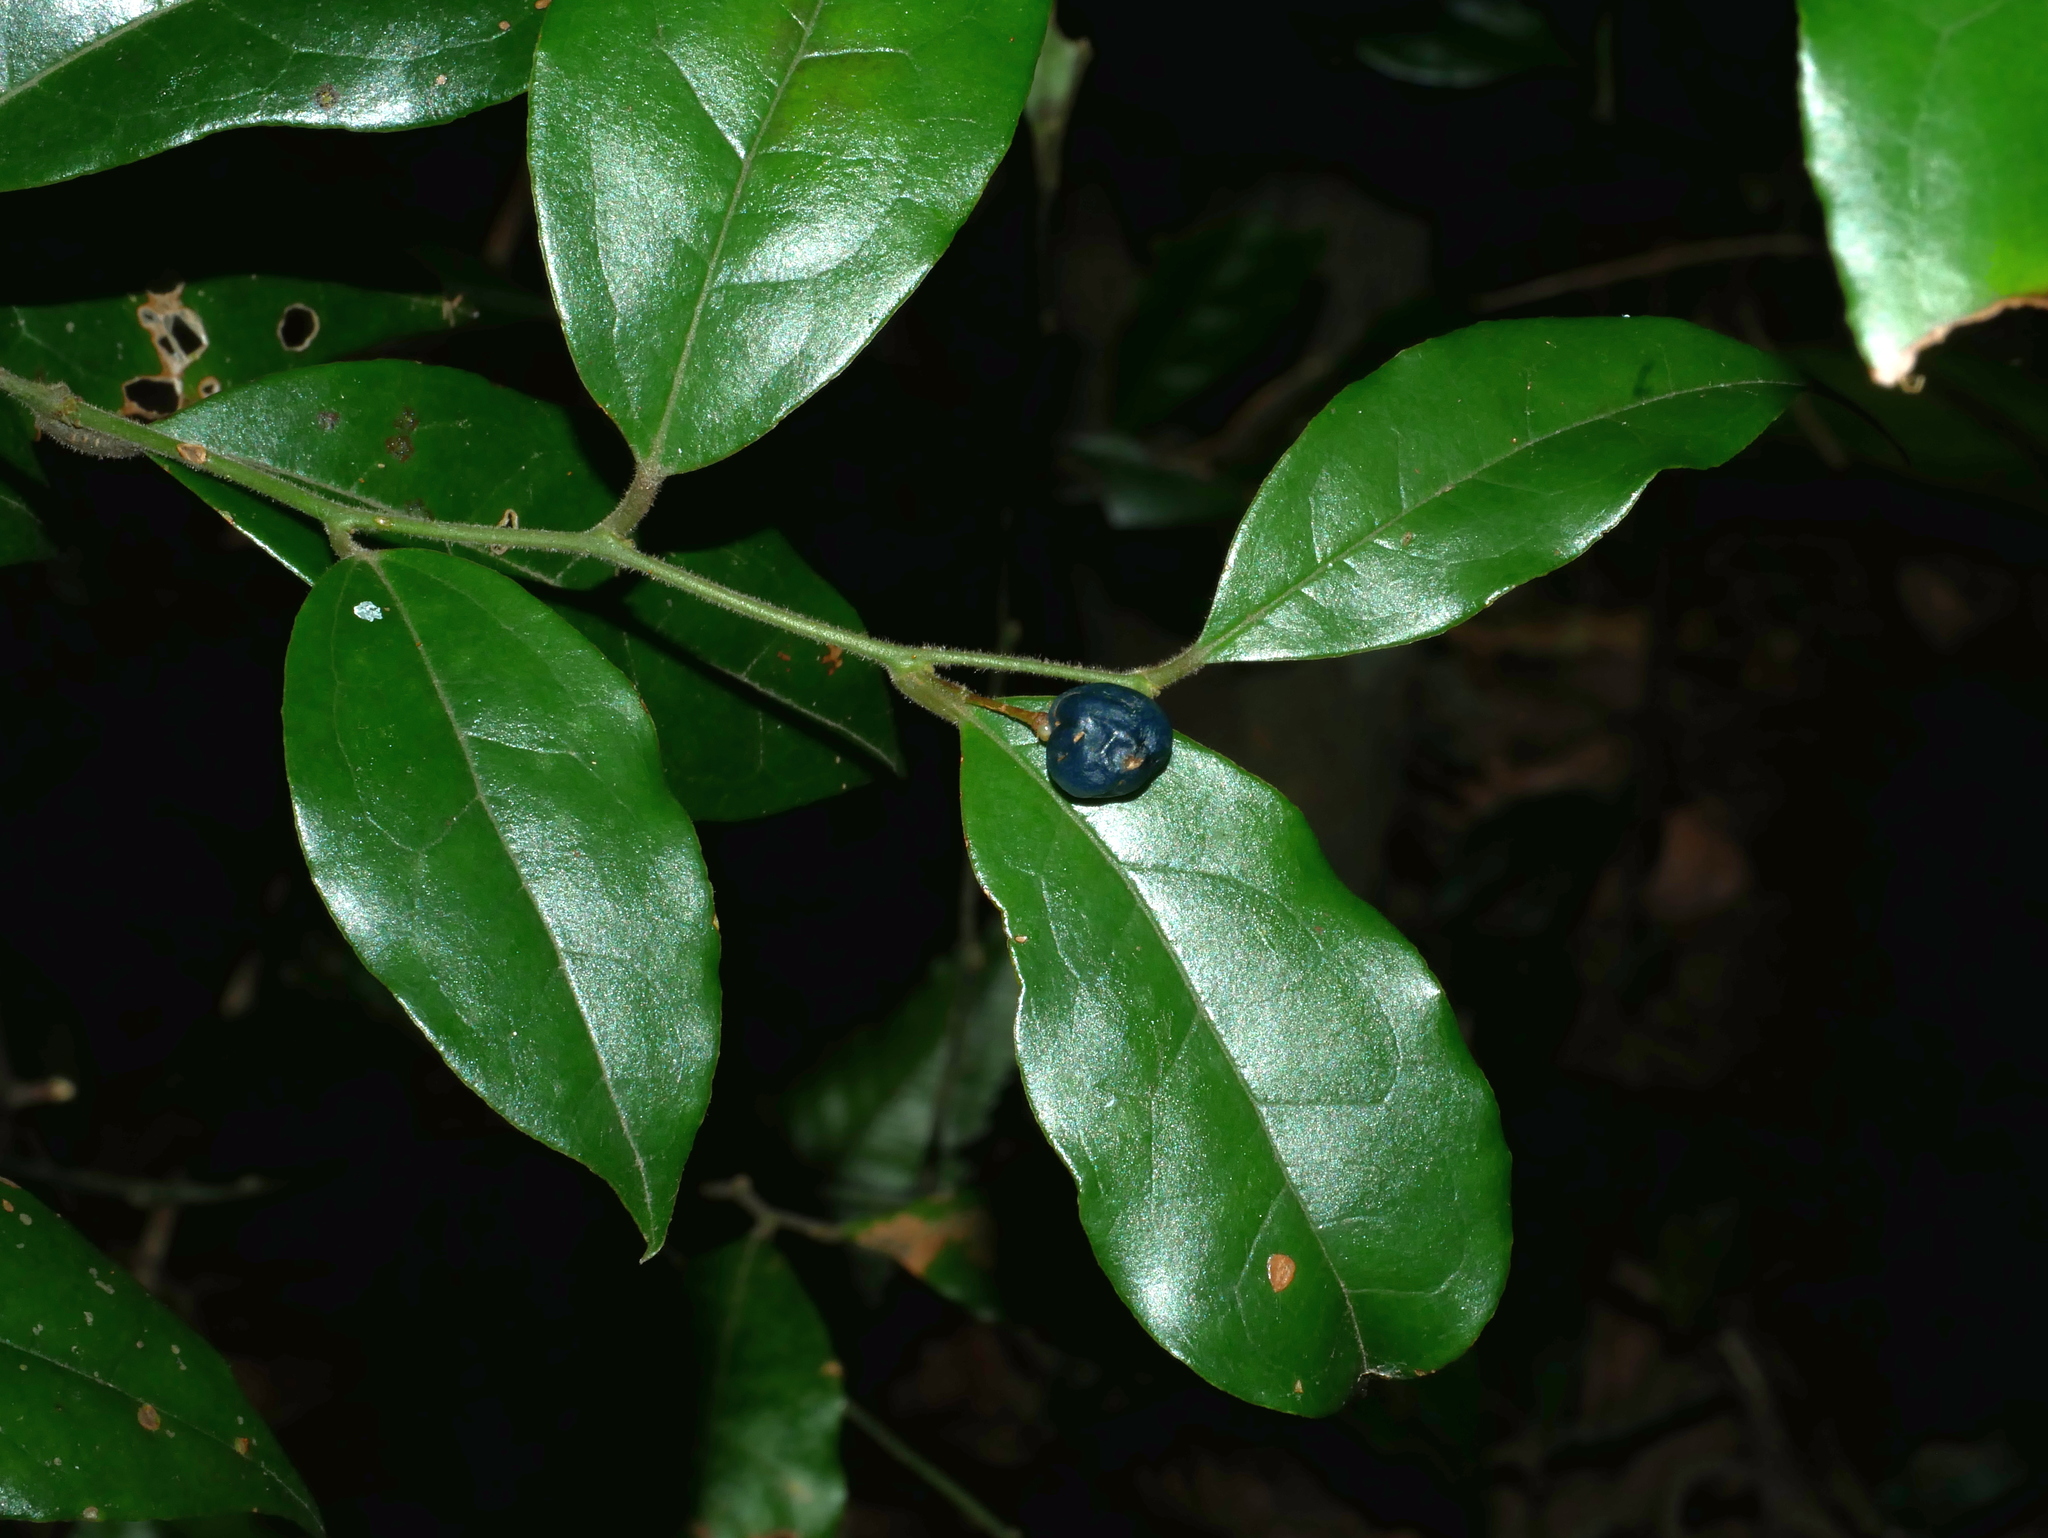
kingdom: Plantae
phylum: Tracheophyta
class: Magnoliopsida
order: Proteales
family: Sabiaceae
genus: Sabia
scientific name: Sabia swinhoei
